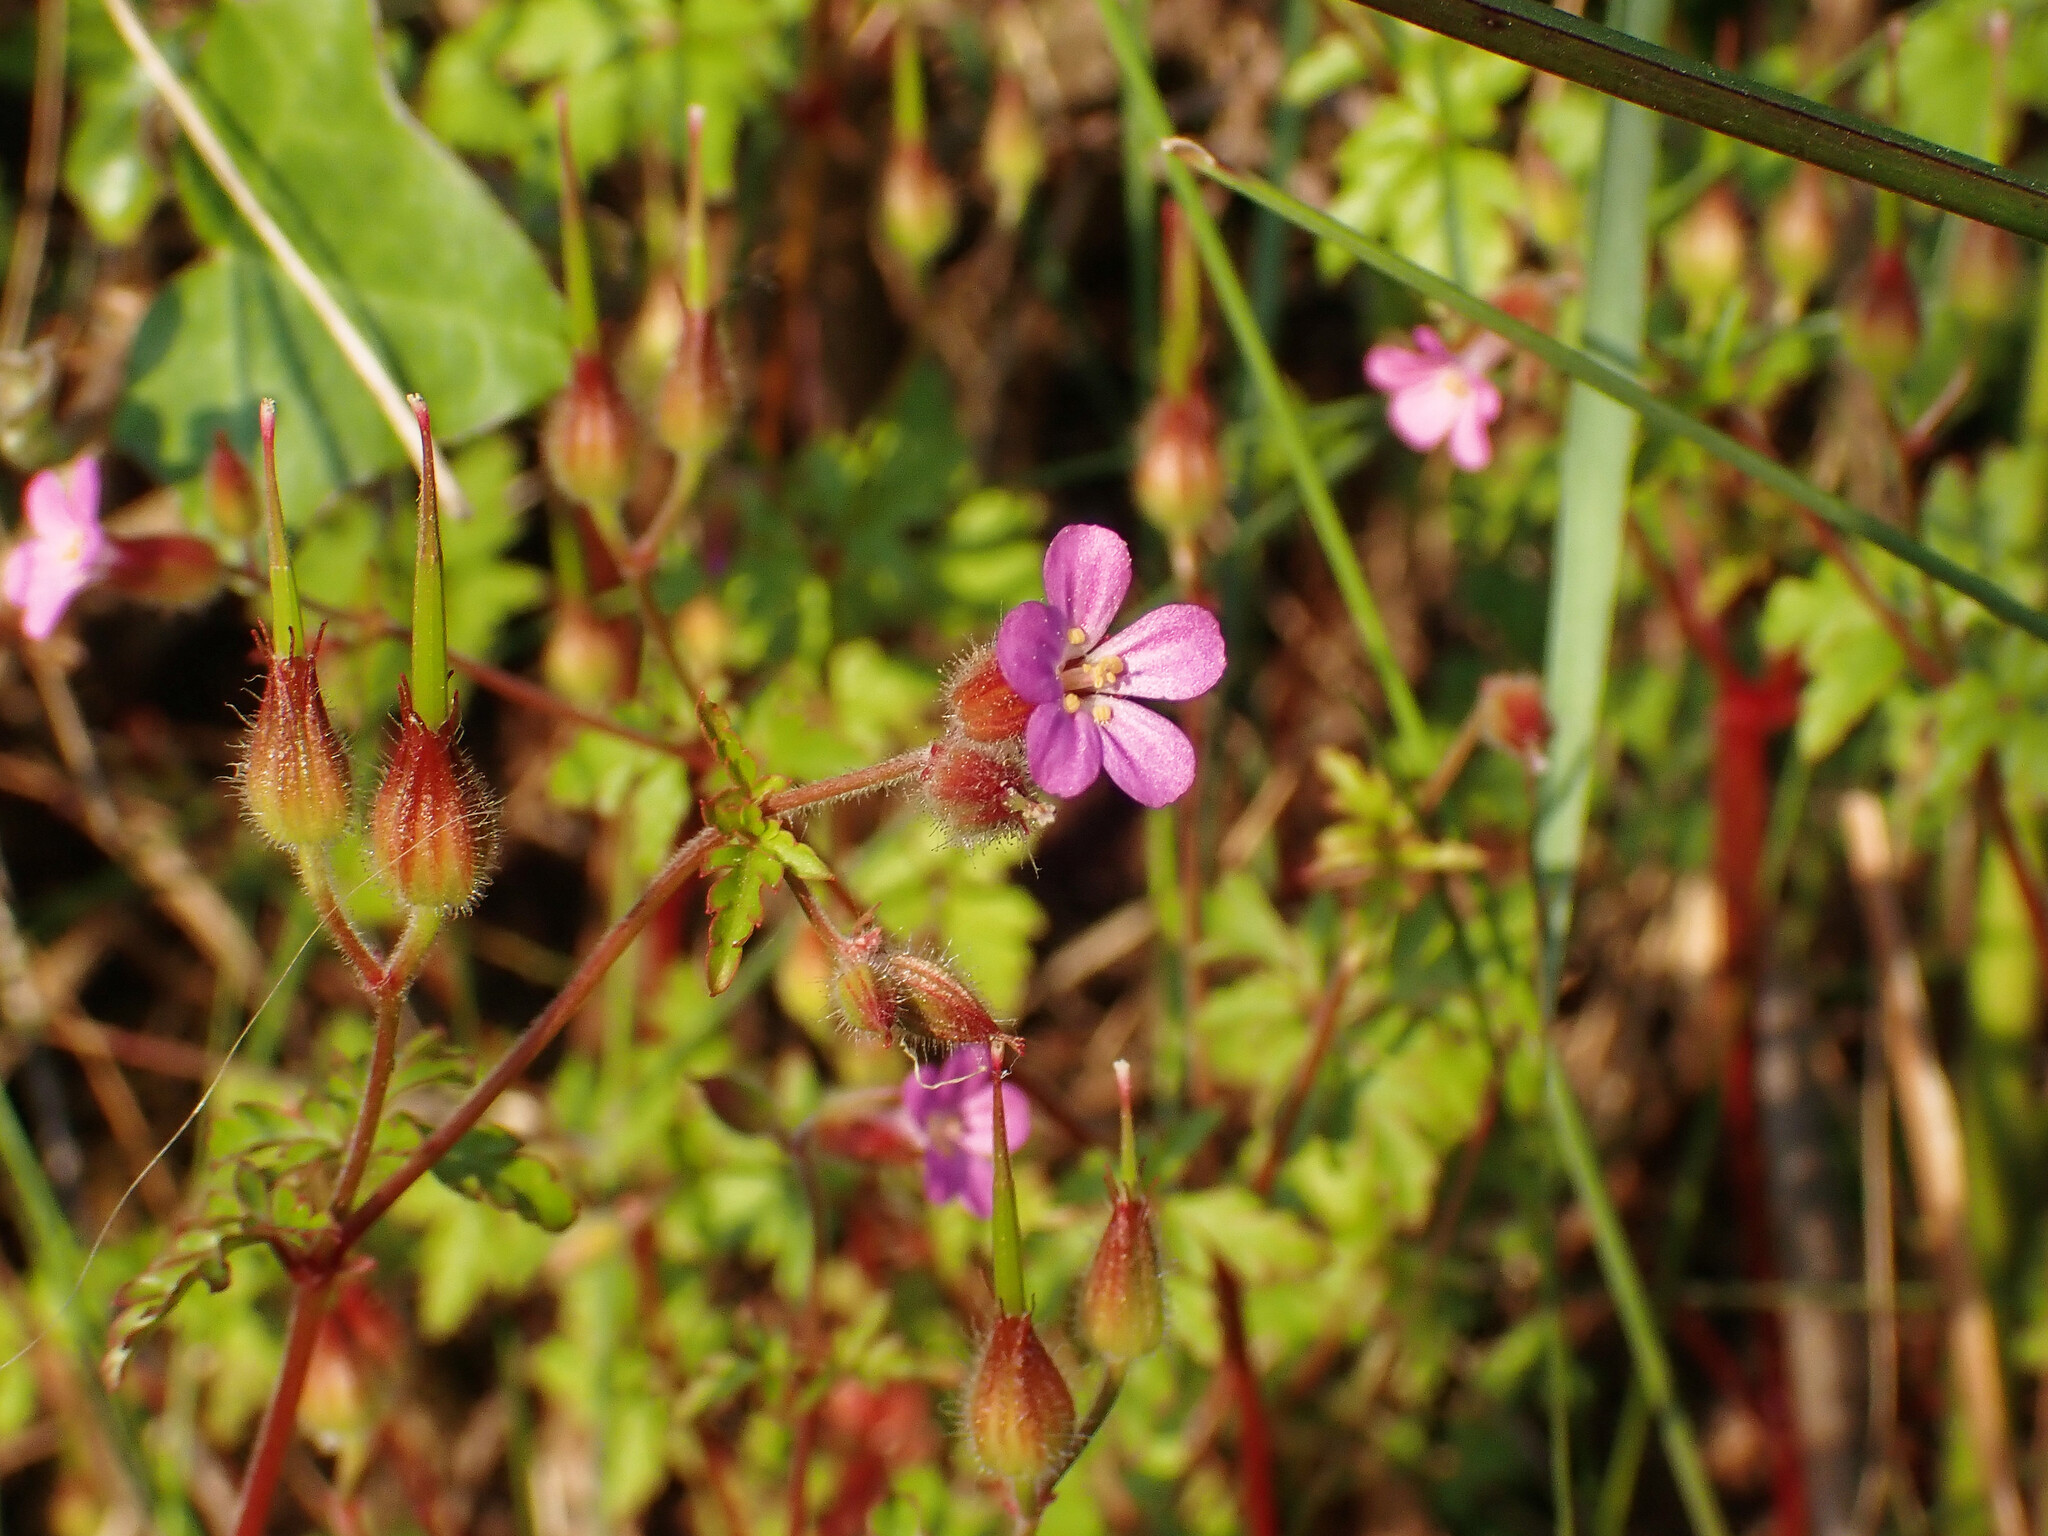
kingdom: Plantae
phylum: Tracheophyta
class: Magnoliopsida
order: Geraniales
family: Geraniaceae
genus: Geranium
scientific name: Geranium purpureum
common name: Little-robin
